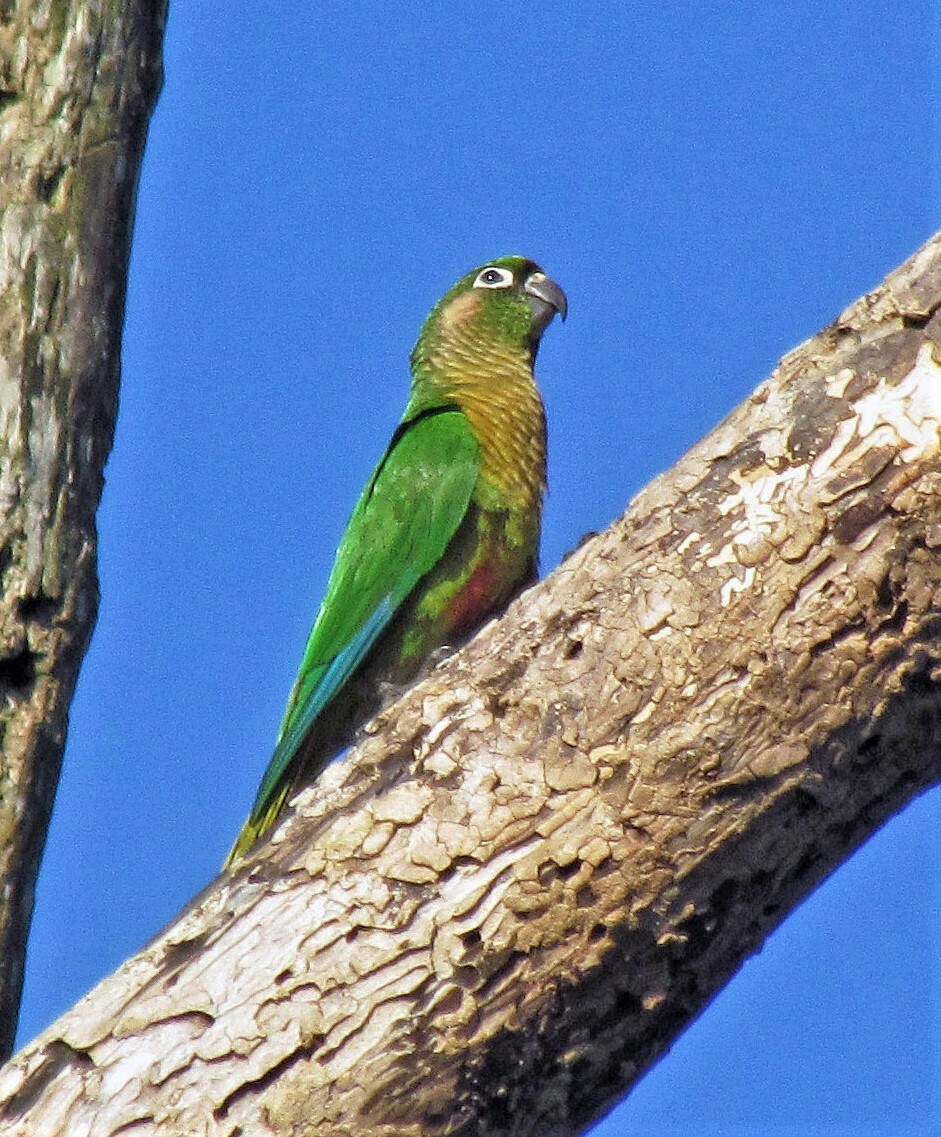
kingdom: Animalia
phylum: Chordata
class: Aves
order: Psittaciformes
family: Psittacidae
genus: Pyrrhura
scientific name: Pyrrhura frontalis
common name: Maroon-bellied parakeet
